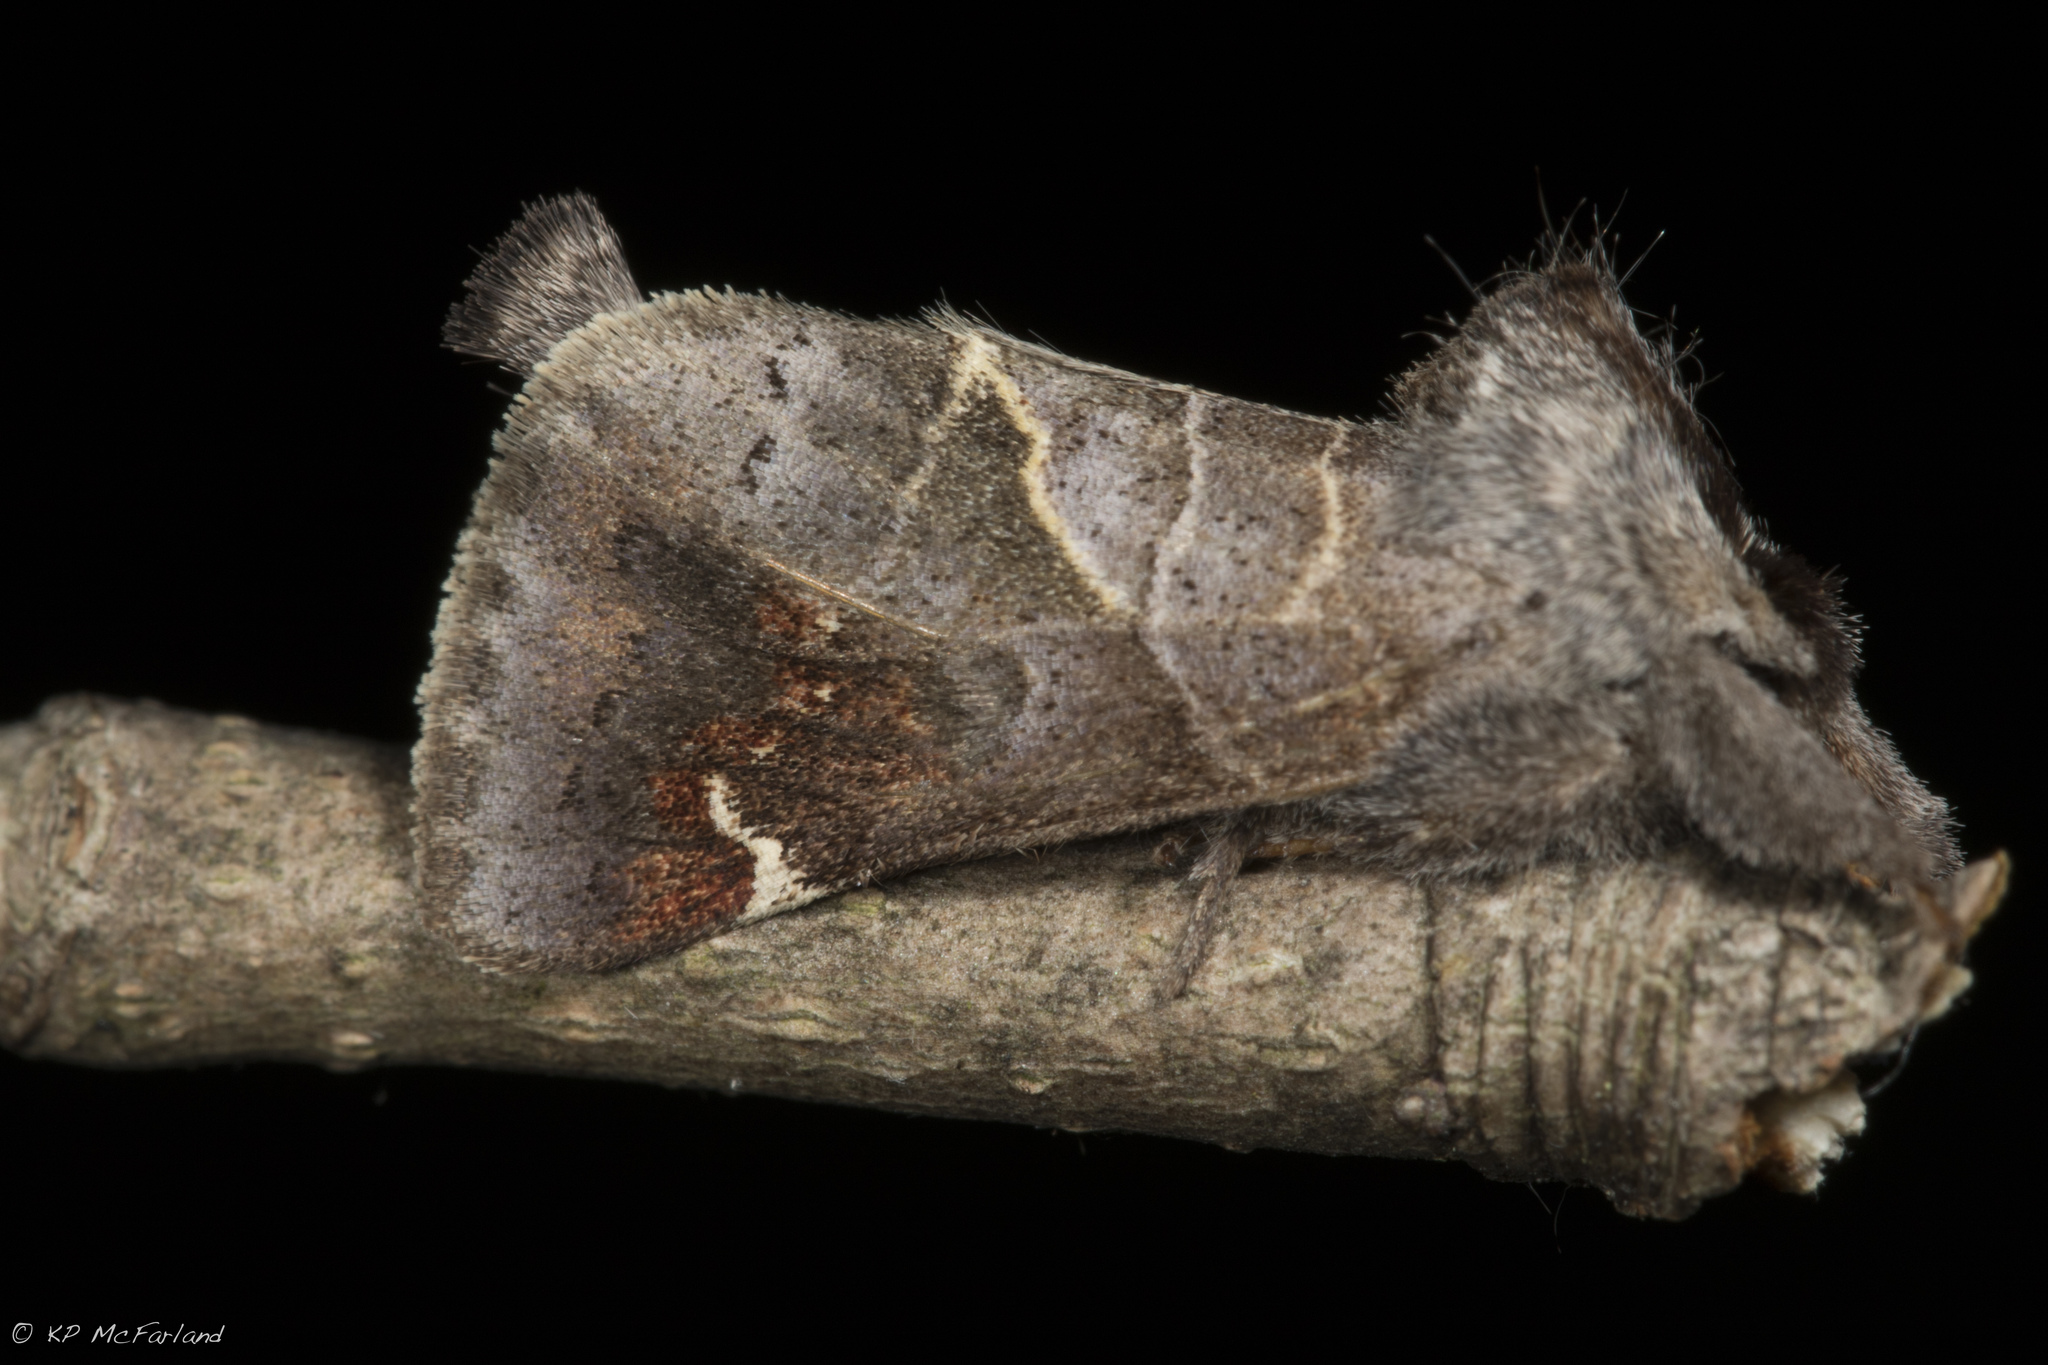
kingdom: Animalia
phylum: Arthropoda
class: Insecta
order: Lepidoptera
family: Notodontidae
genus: Clostera
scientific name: Clostera apicalis
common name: Apical prominent
